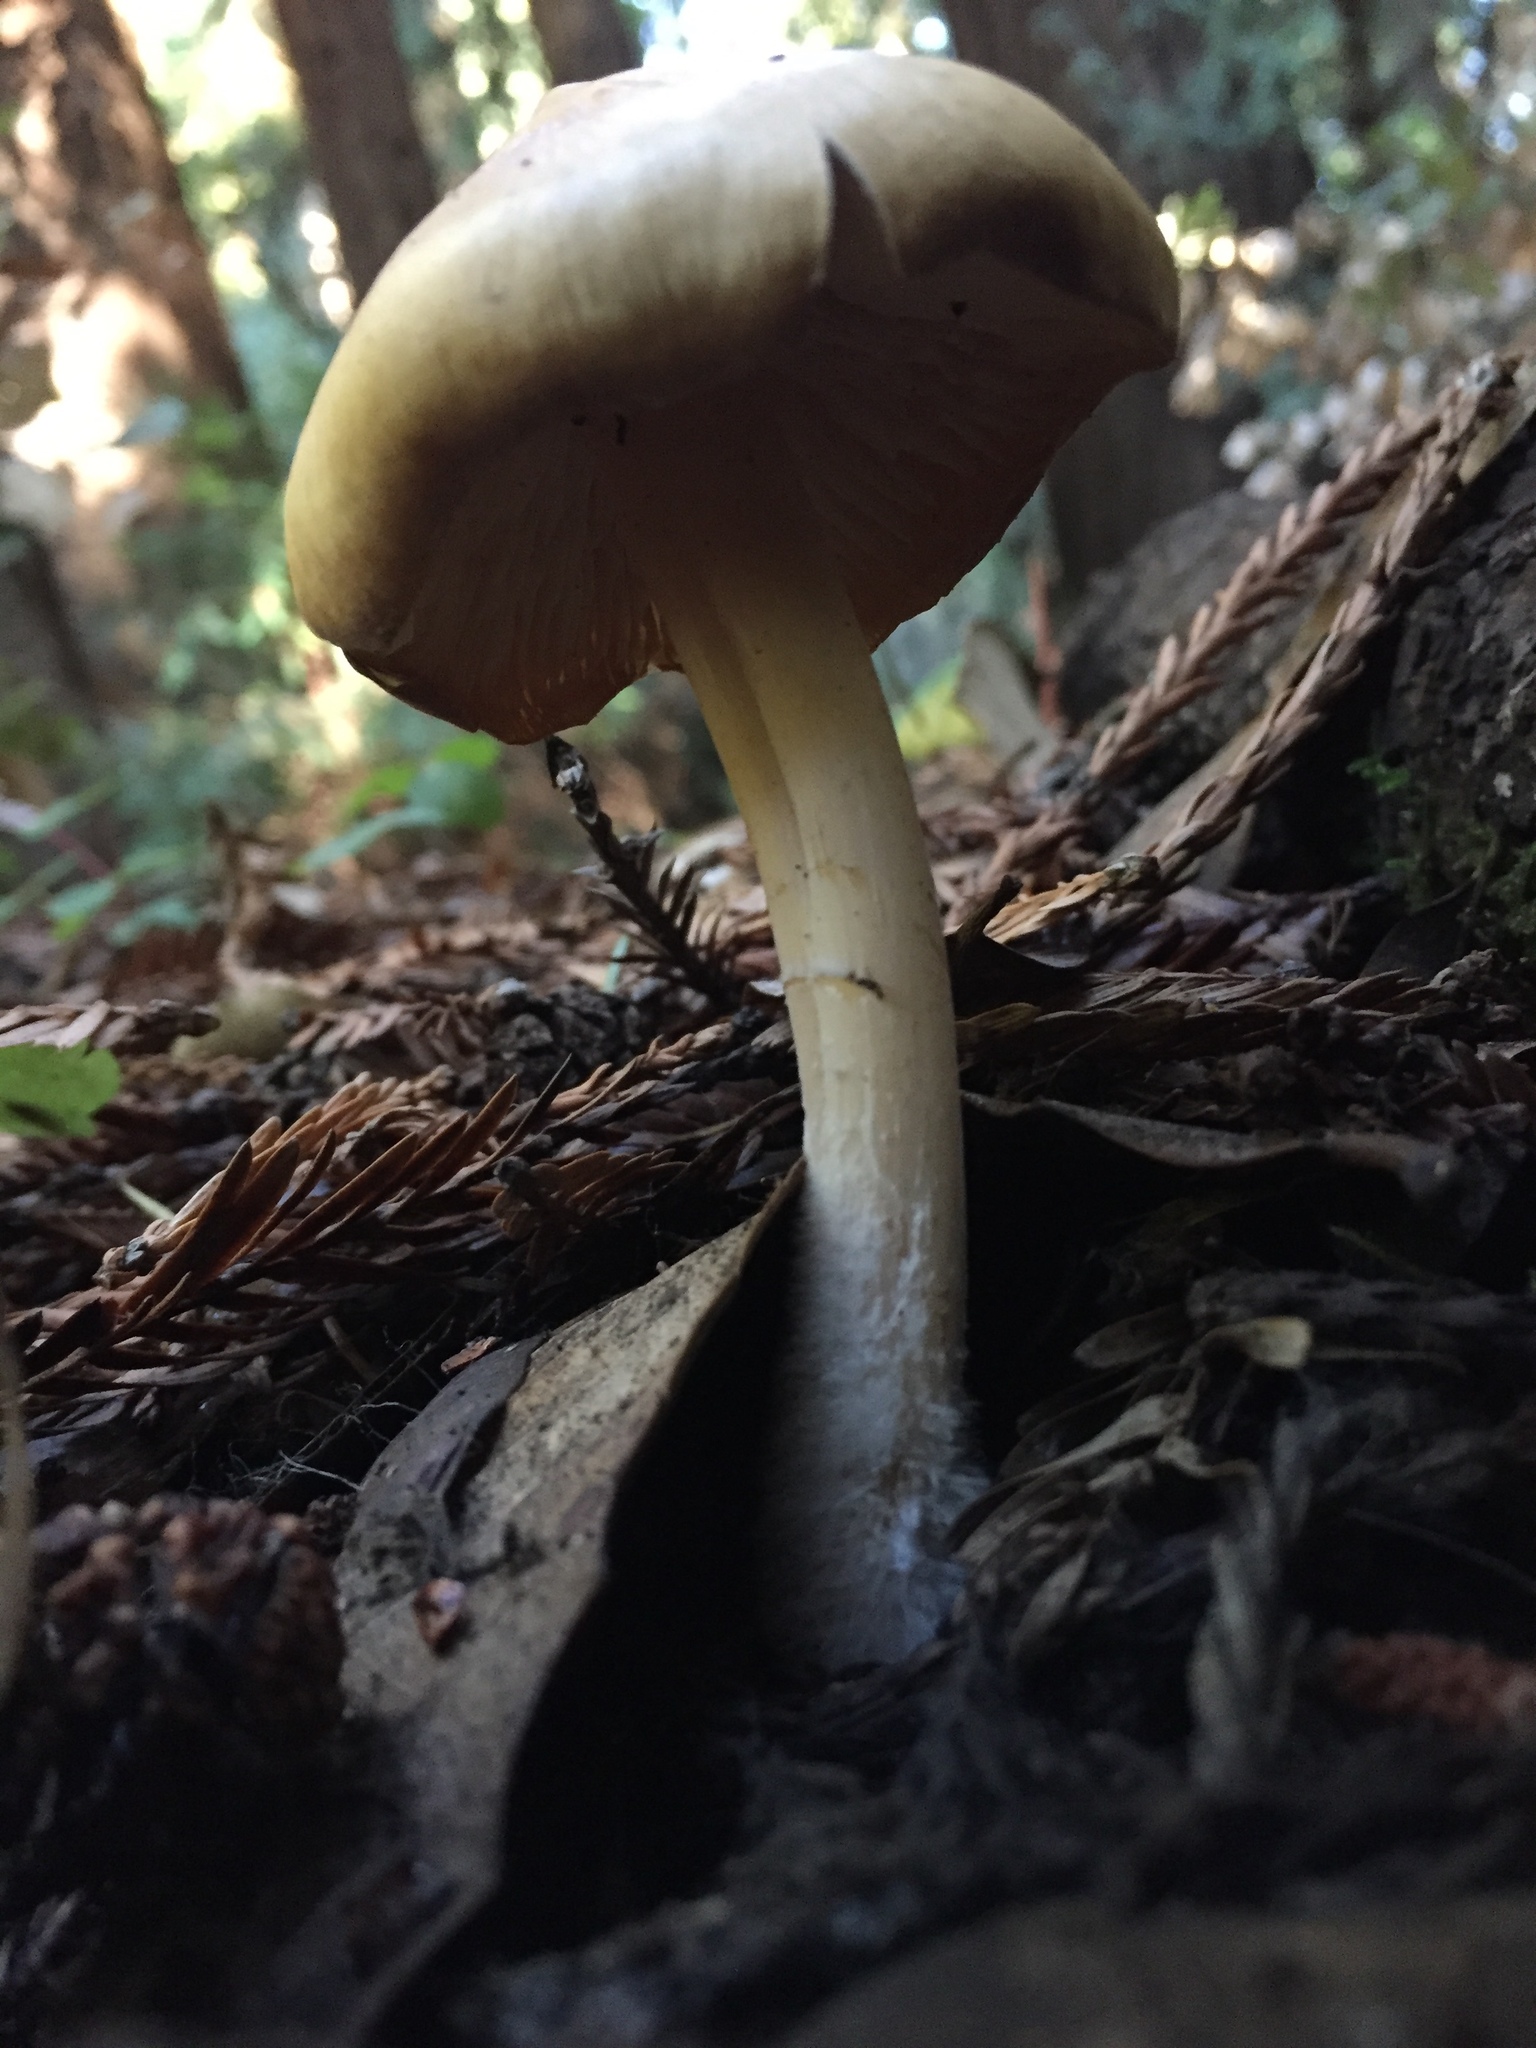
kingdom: Fungi
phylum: Basidiomycota
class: Agaricomycetes
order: Agaricales
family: Tricholomataceae
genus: Caulorhiza
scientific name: Caulorhiza umbonata
